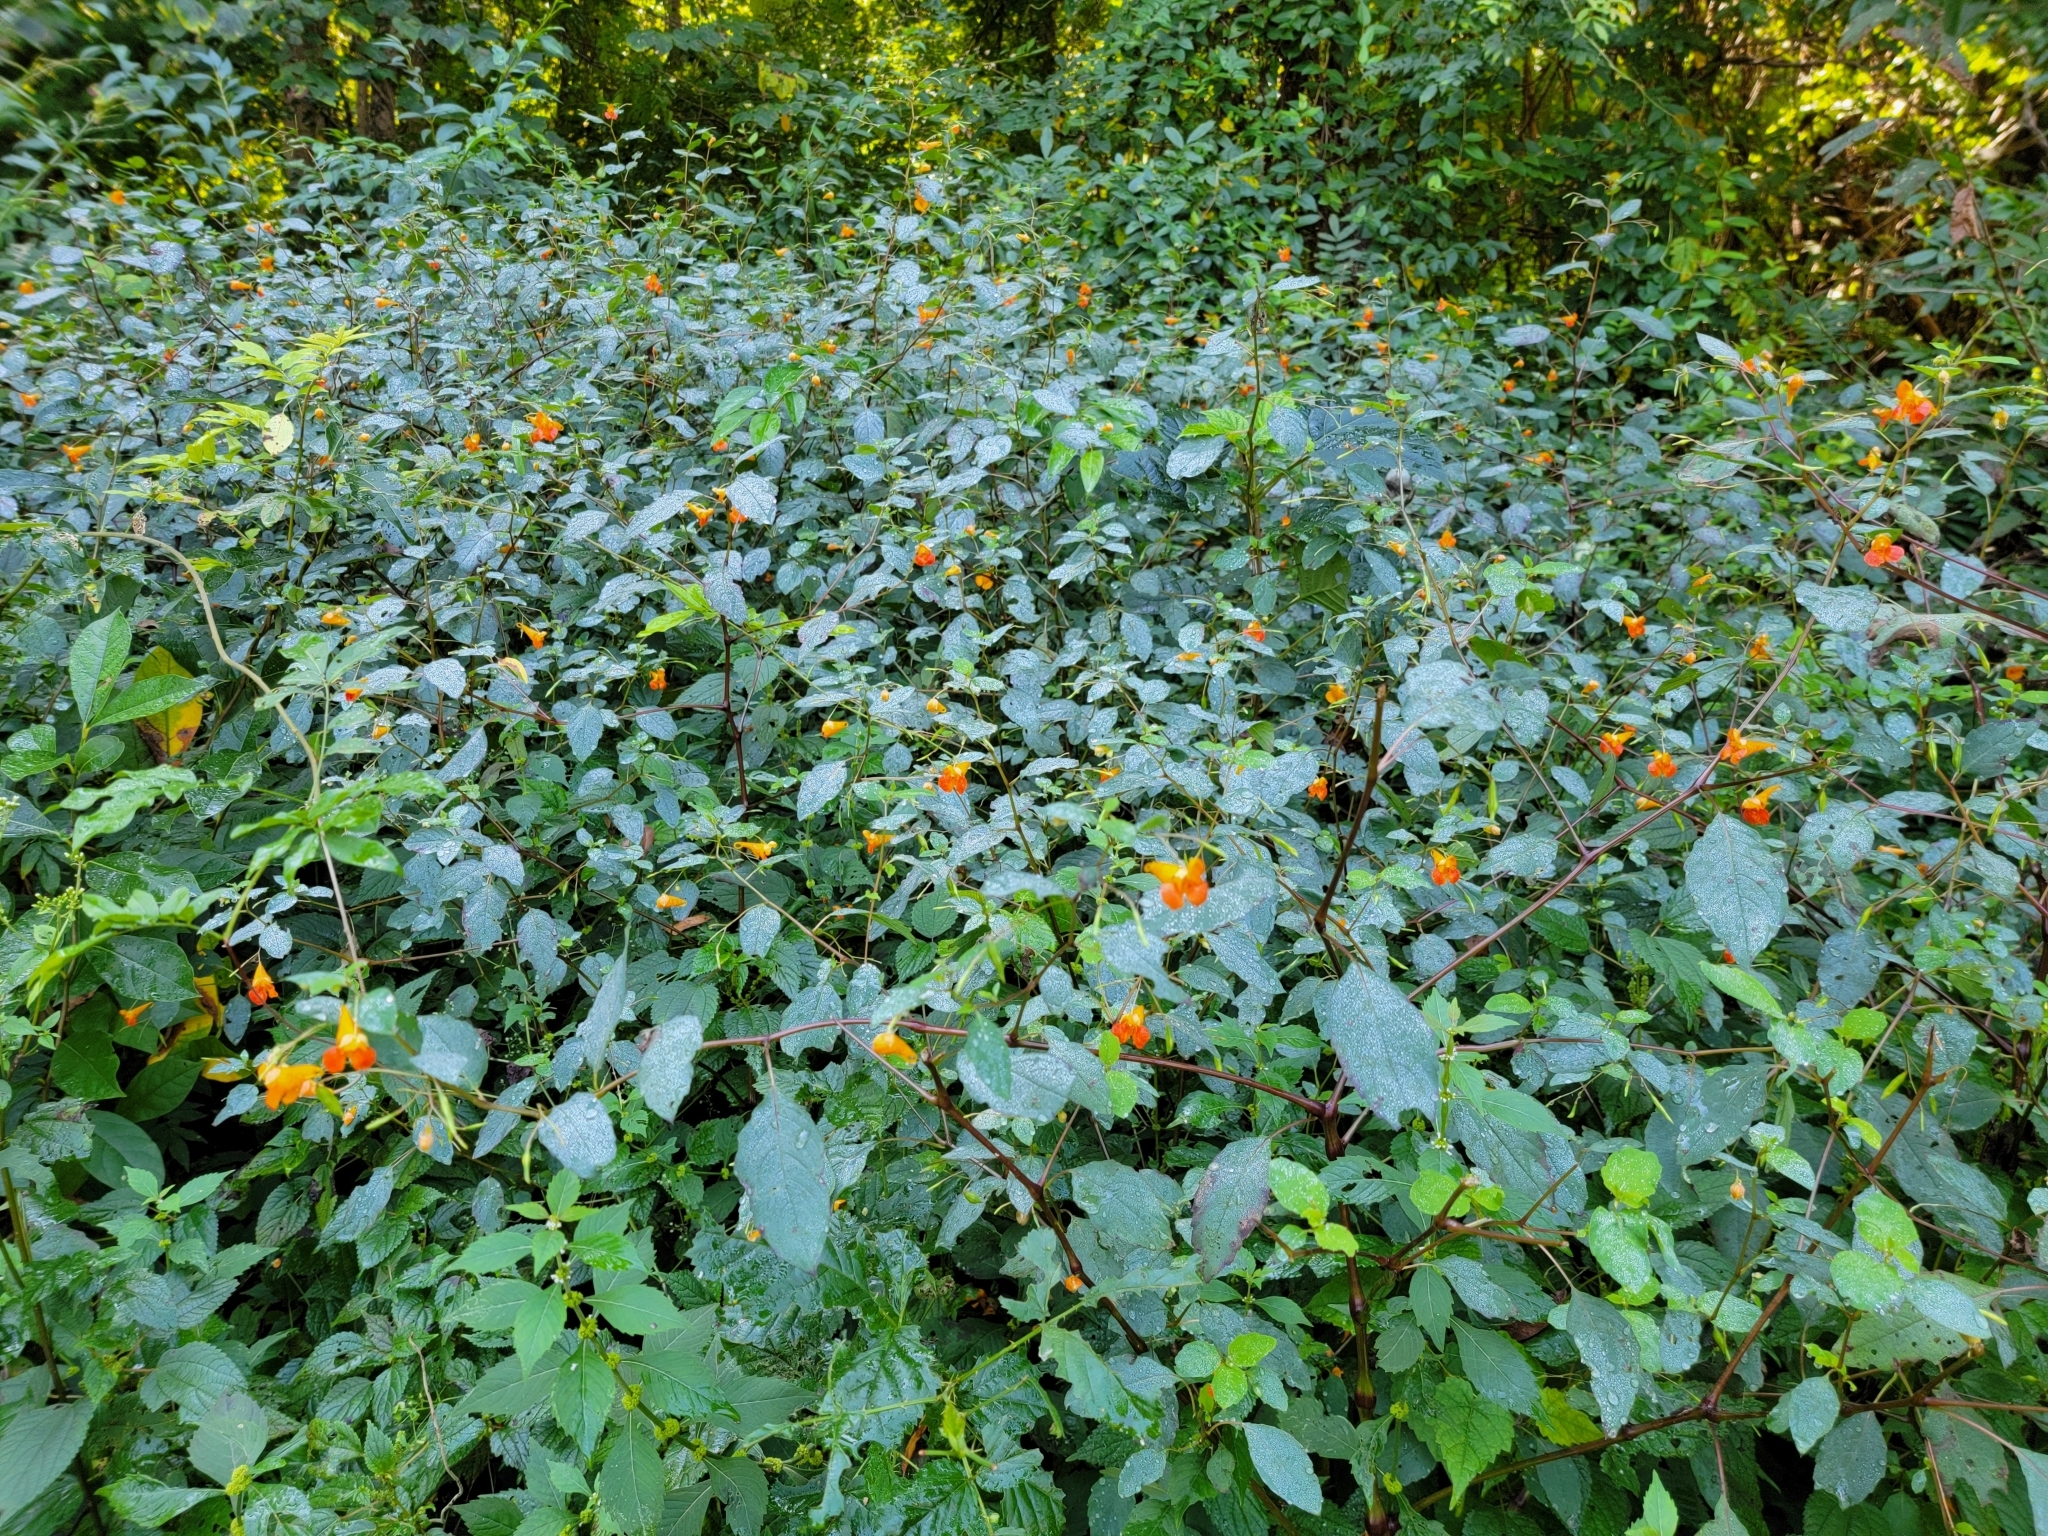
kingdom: Plantae
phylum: Tracheophyta
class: Magnoliopsida
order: Ericales
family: Balsaminaceae
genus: Impatiens
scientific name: Impatiens capensis
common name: Orange balsam
